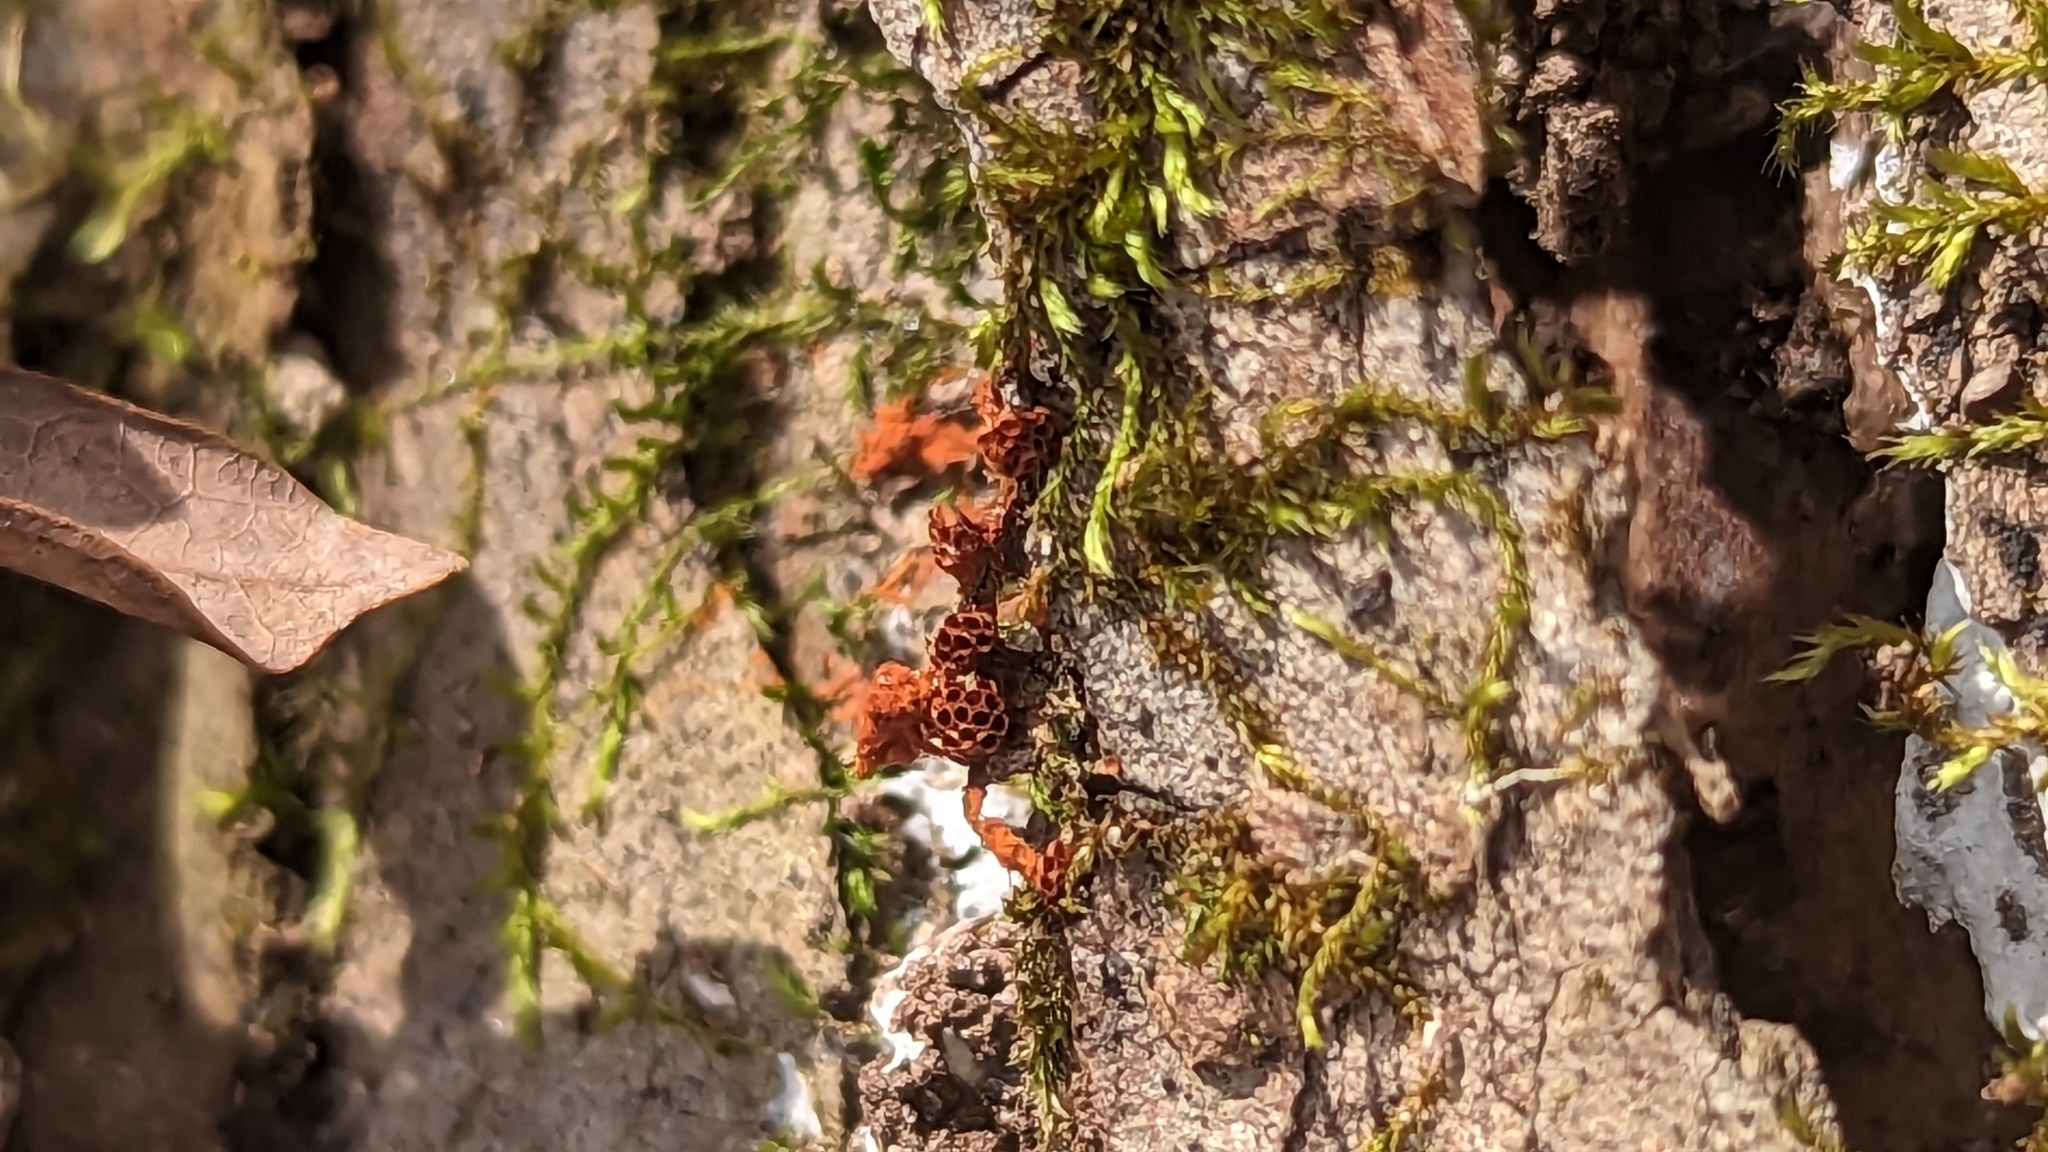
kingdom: Protozoa
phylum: Mycetozoa
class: Myxomycetes
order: Trichiales
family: Trichiaceae
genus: Metatrichia
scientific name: Metatrichia vesparia
